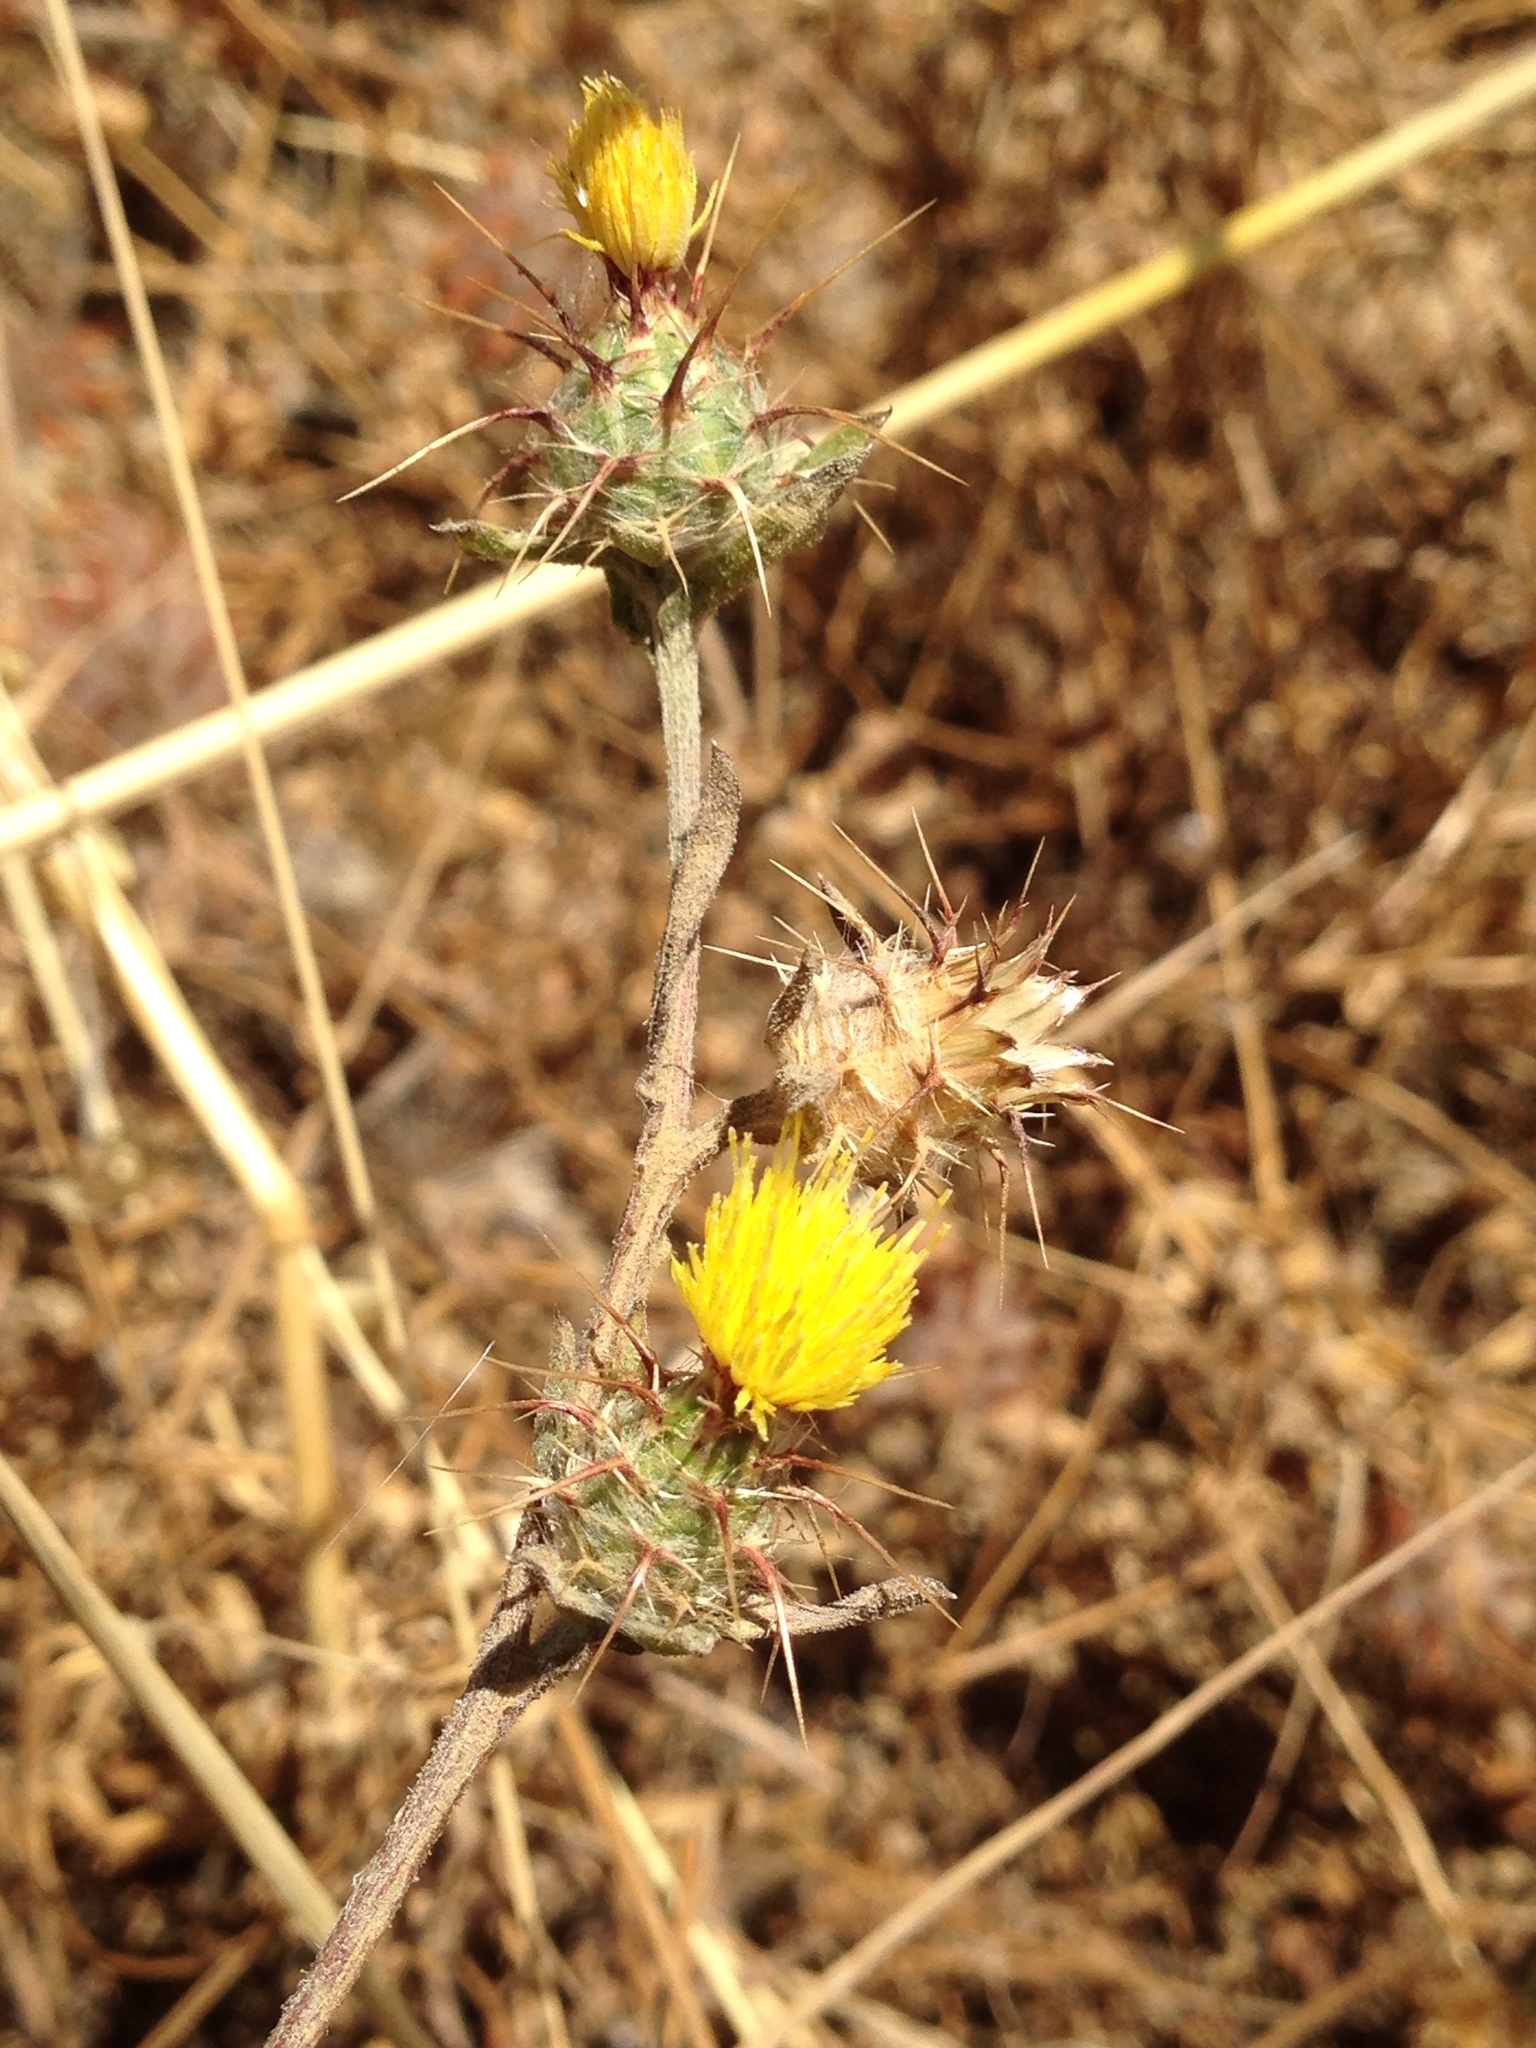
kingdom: Plantae
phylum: Tracheophyta
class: Magnoliopsida
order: Asterales
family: Asteraceae
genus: Centaurea
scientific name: Centaurea melitensis
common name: Maltese star-thistle
